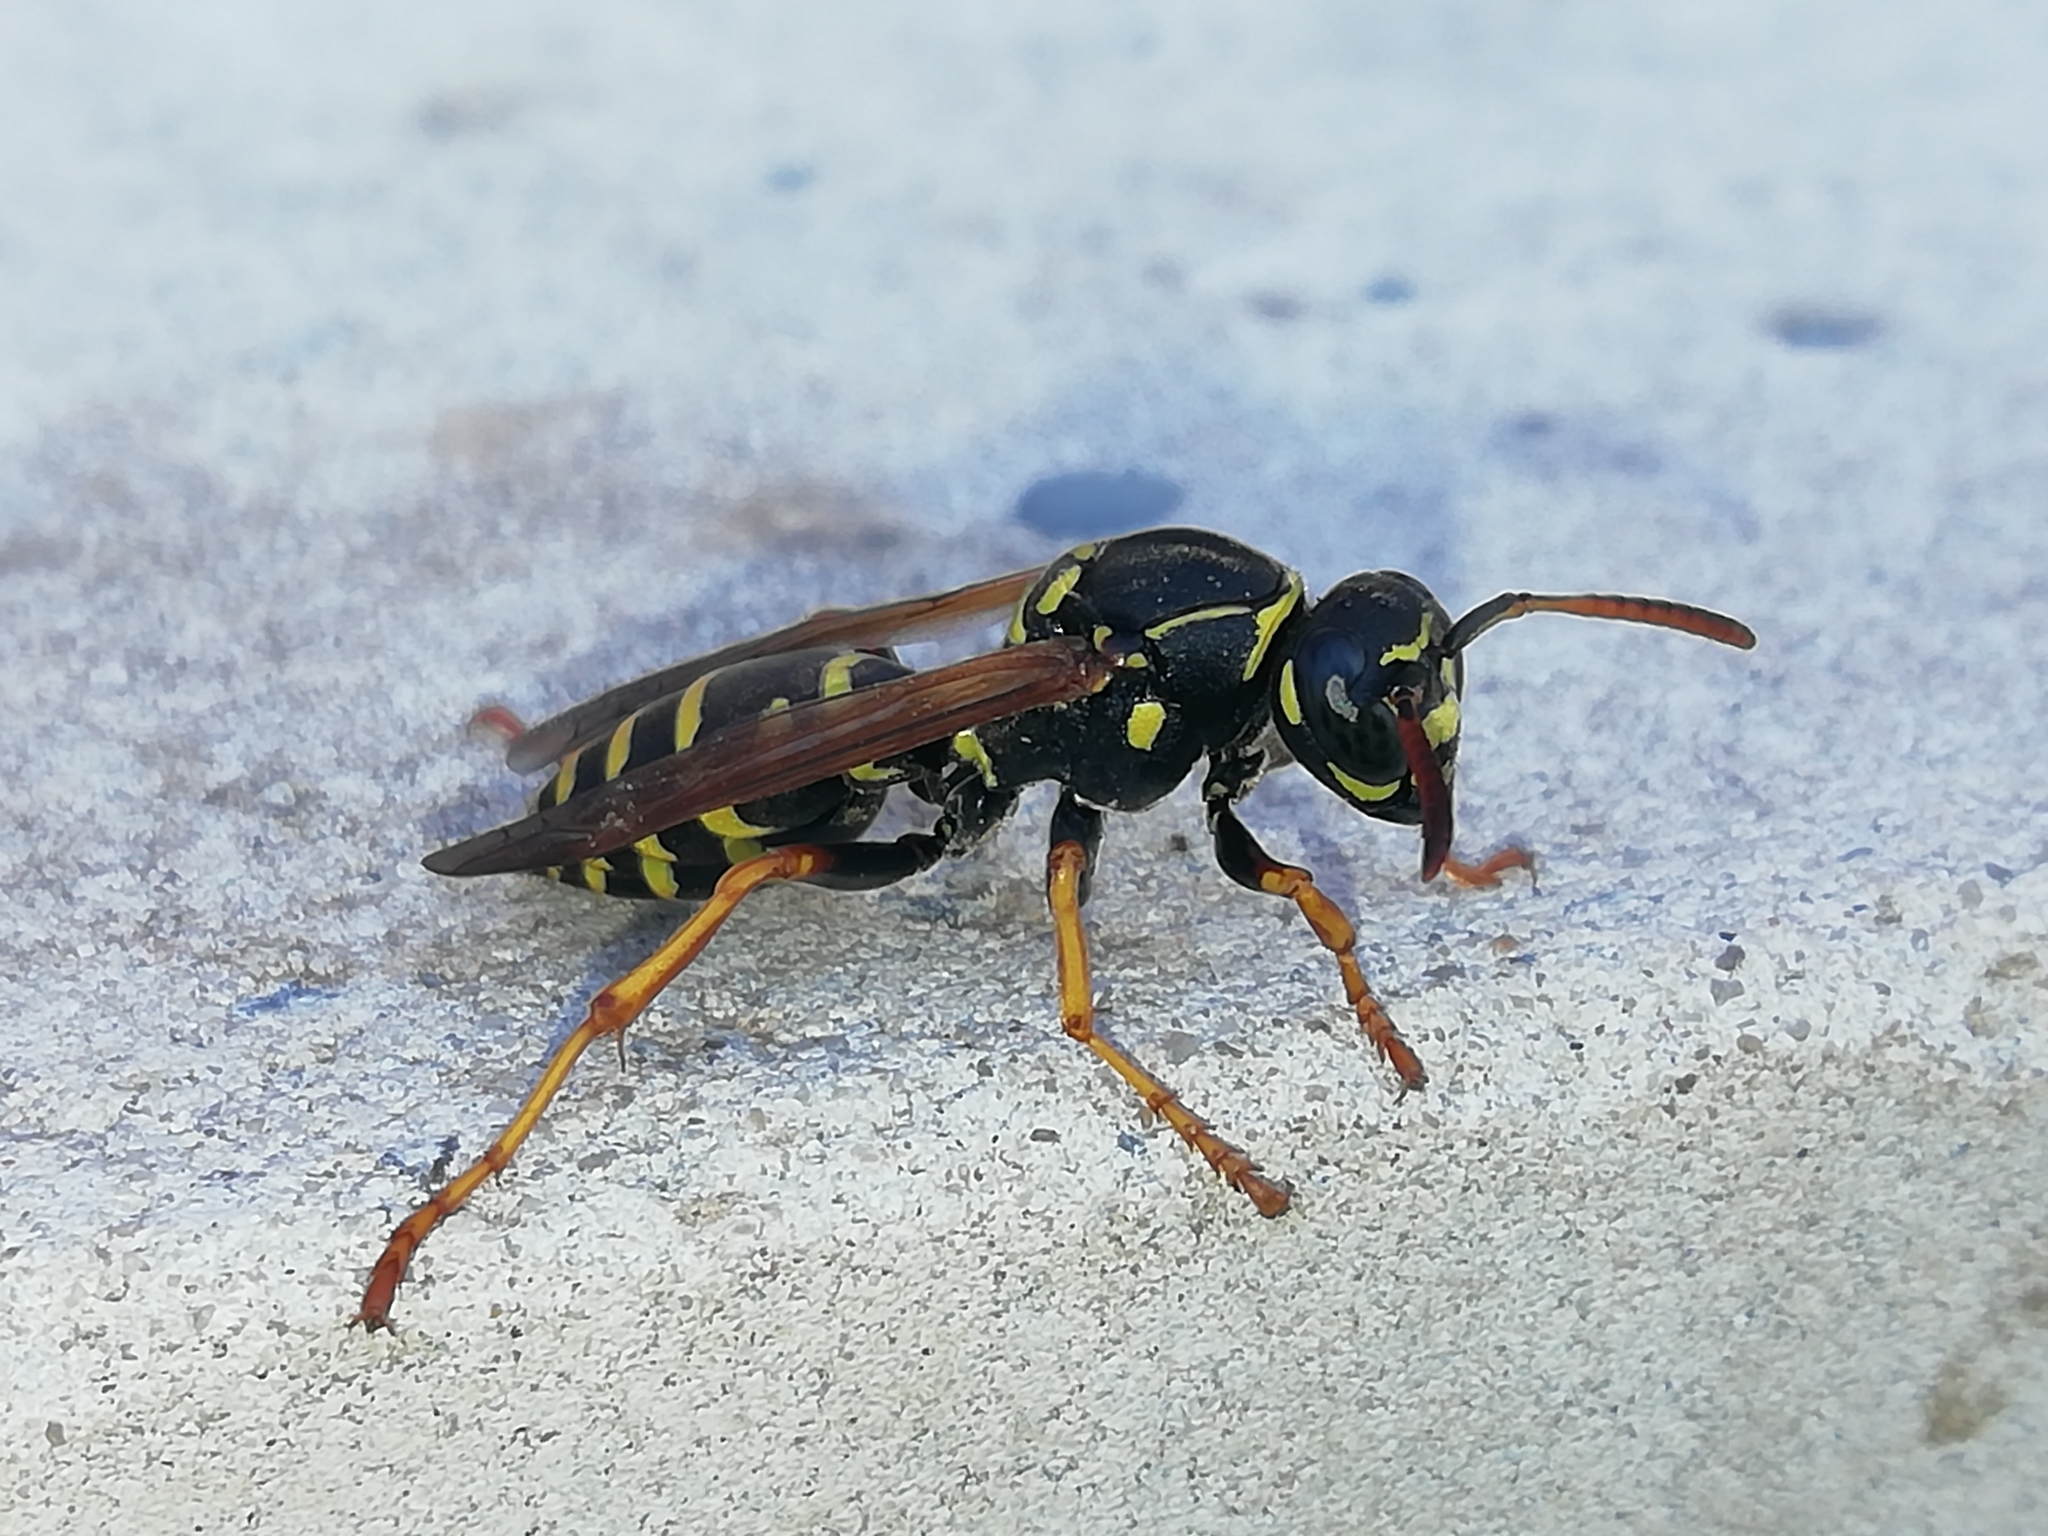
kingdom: Animalia
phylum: Arthropoda
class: Insecta
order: Hymenoptera
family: Eumenidae
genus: Polistes
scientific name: Polistes nimpha
